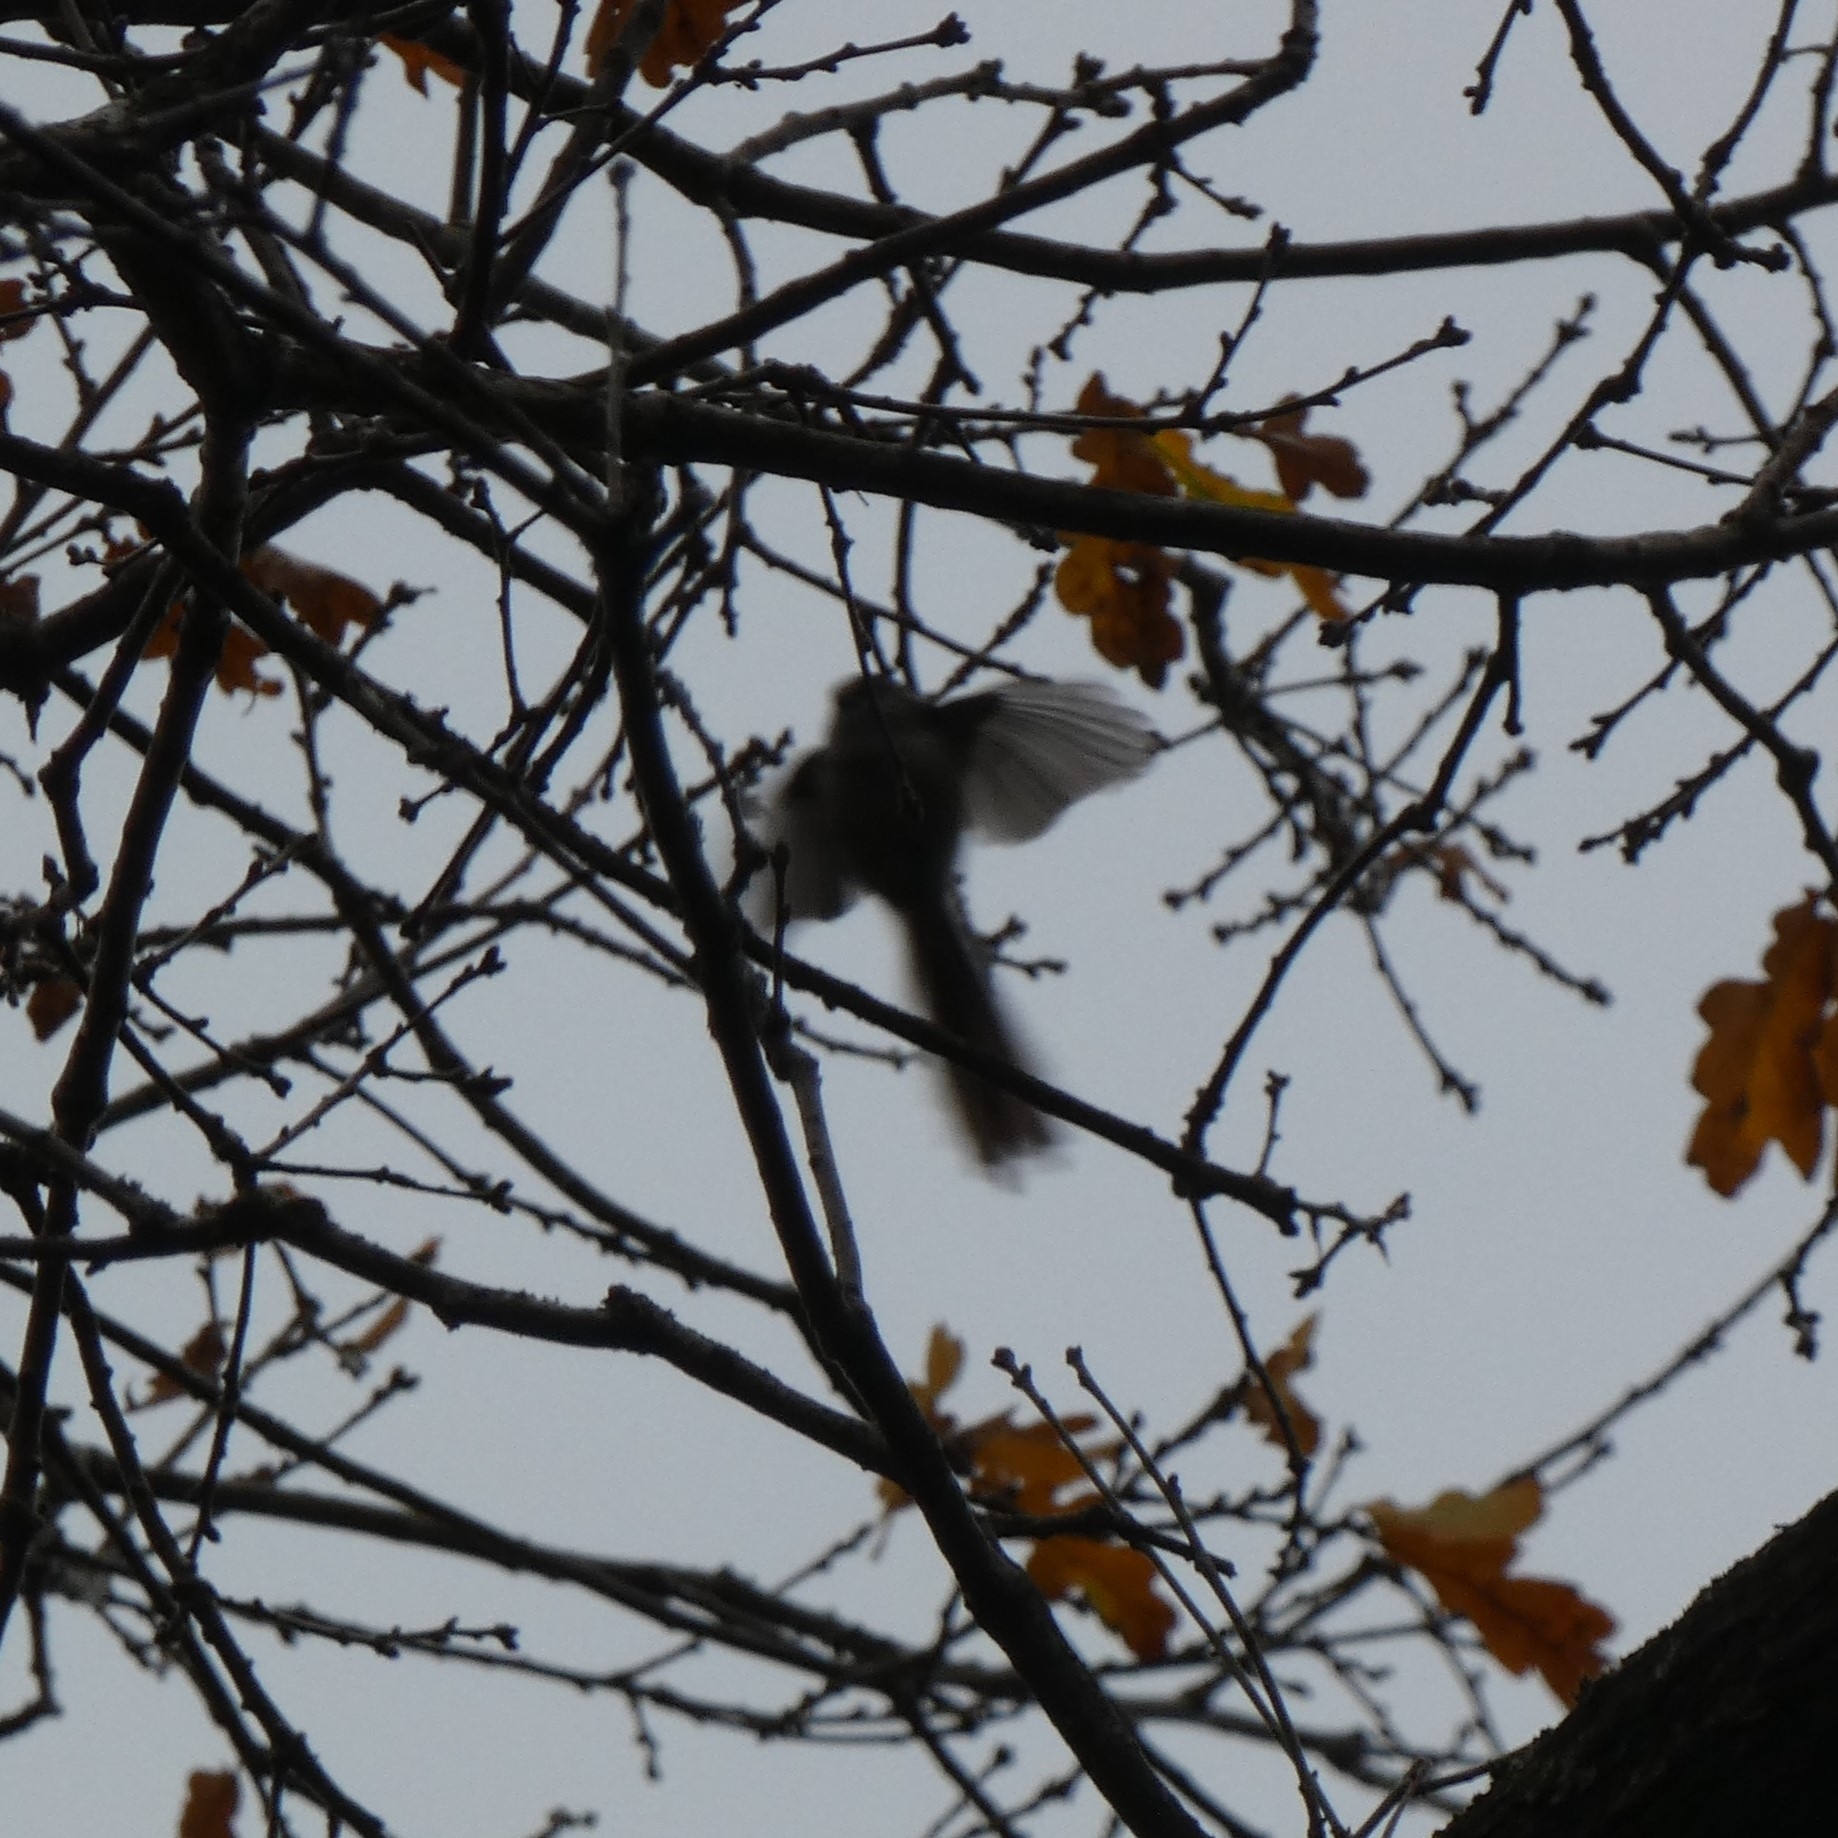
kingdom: Animalia
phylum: Chordata
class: Aves
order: Passeriformes
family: Aegithalidae
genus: Aegithalos
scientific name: Aegithalos caudatus
